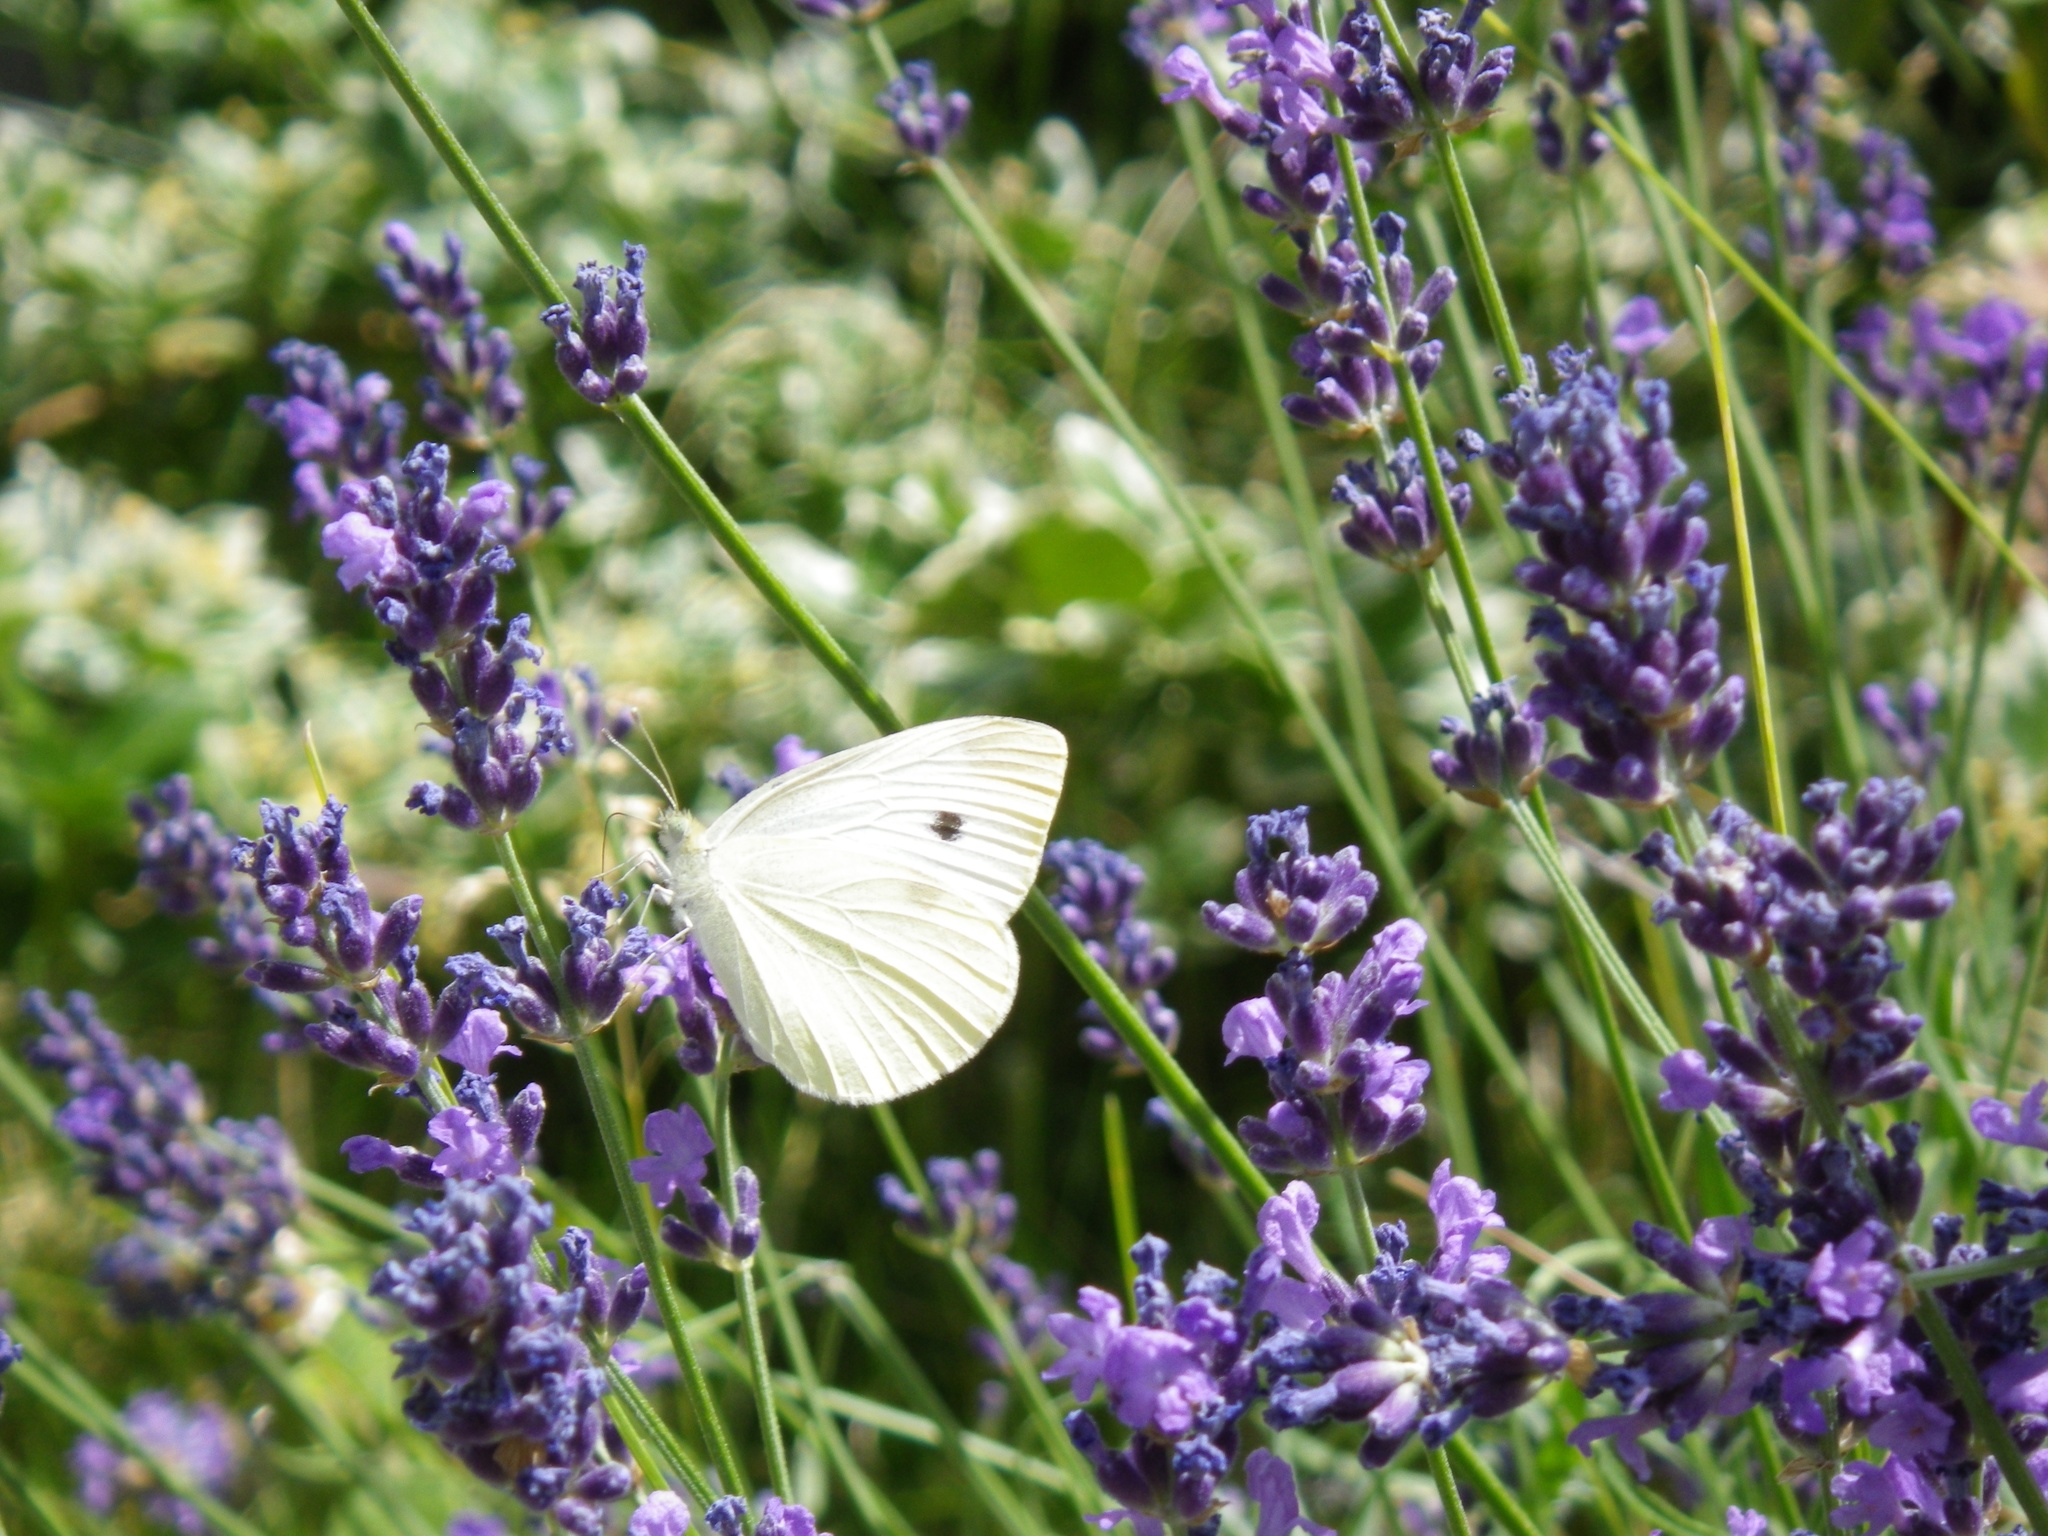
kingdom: Animalia
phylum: Arthropoda
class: Insecta
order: Lepidoptera
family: Pieridae
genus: Pieris
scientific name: Pieris rapae
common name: Small white
